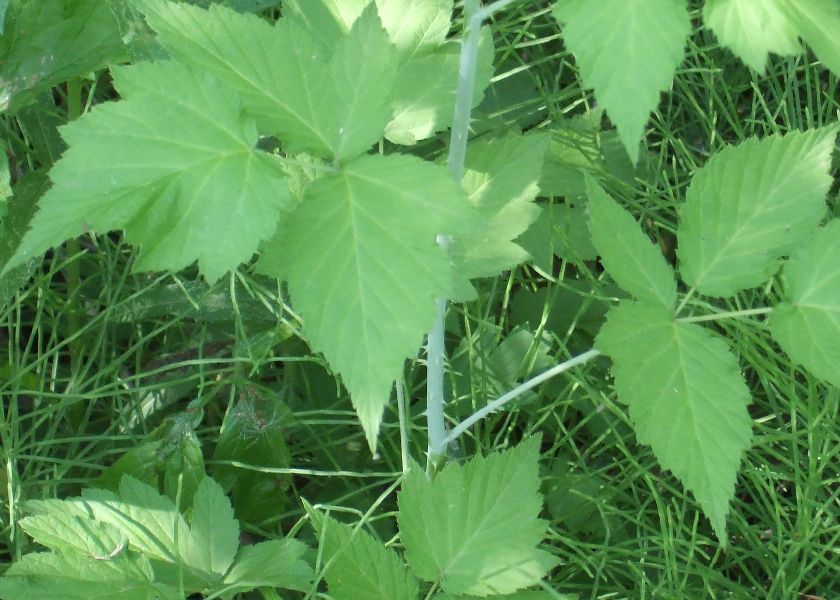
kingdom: Plantae
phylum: Tracheophyta
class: Magnoliopsida
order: Rosales
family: Rosaceae
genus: Rubus
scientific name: Rubus occidentalis
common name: Black raspberry
